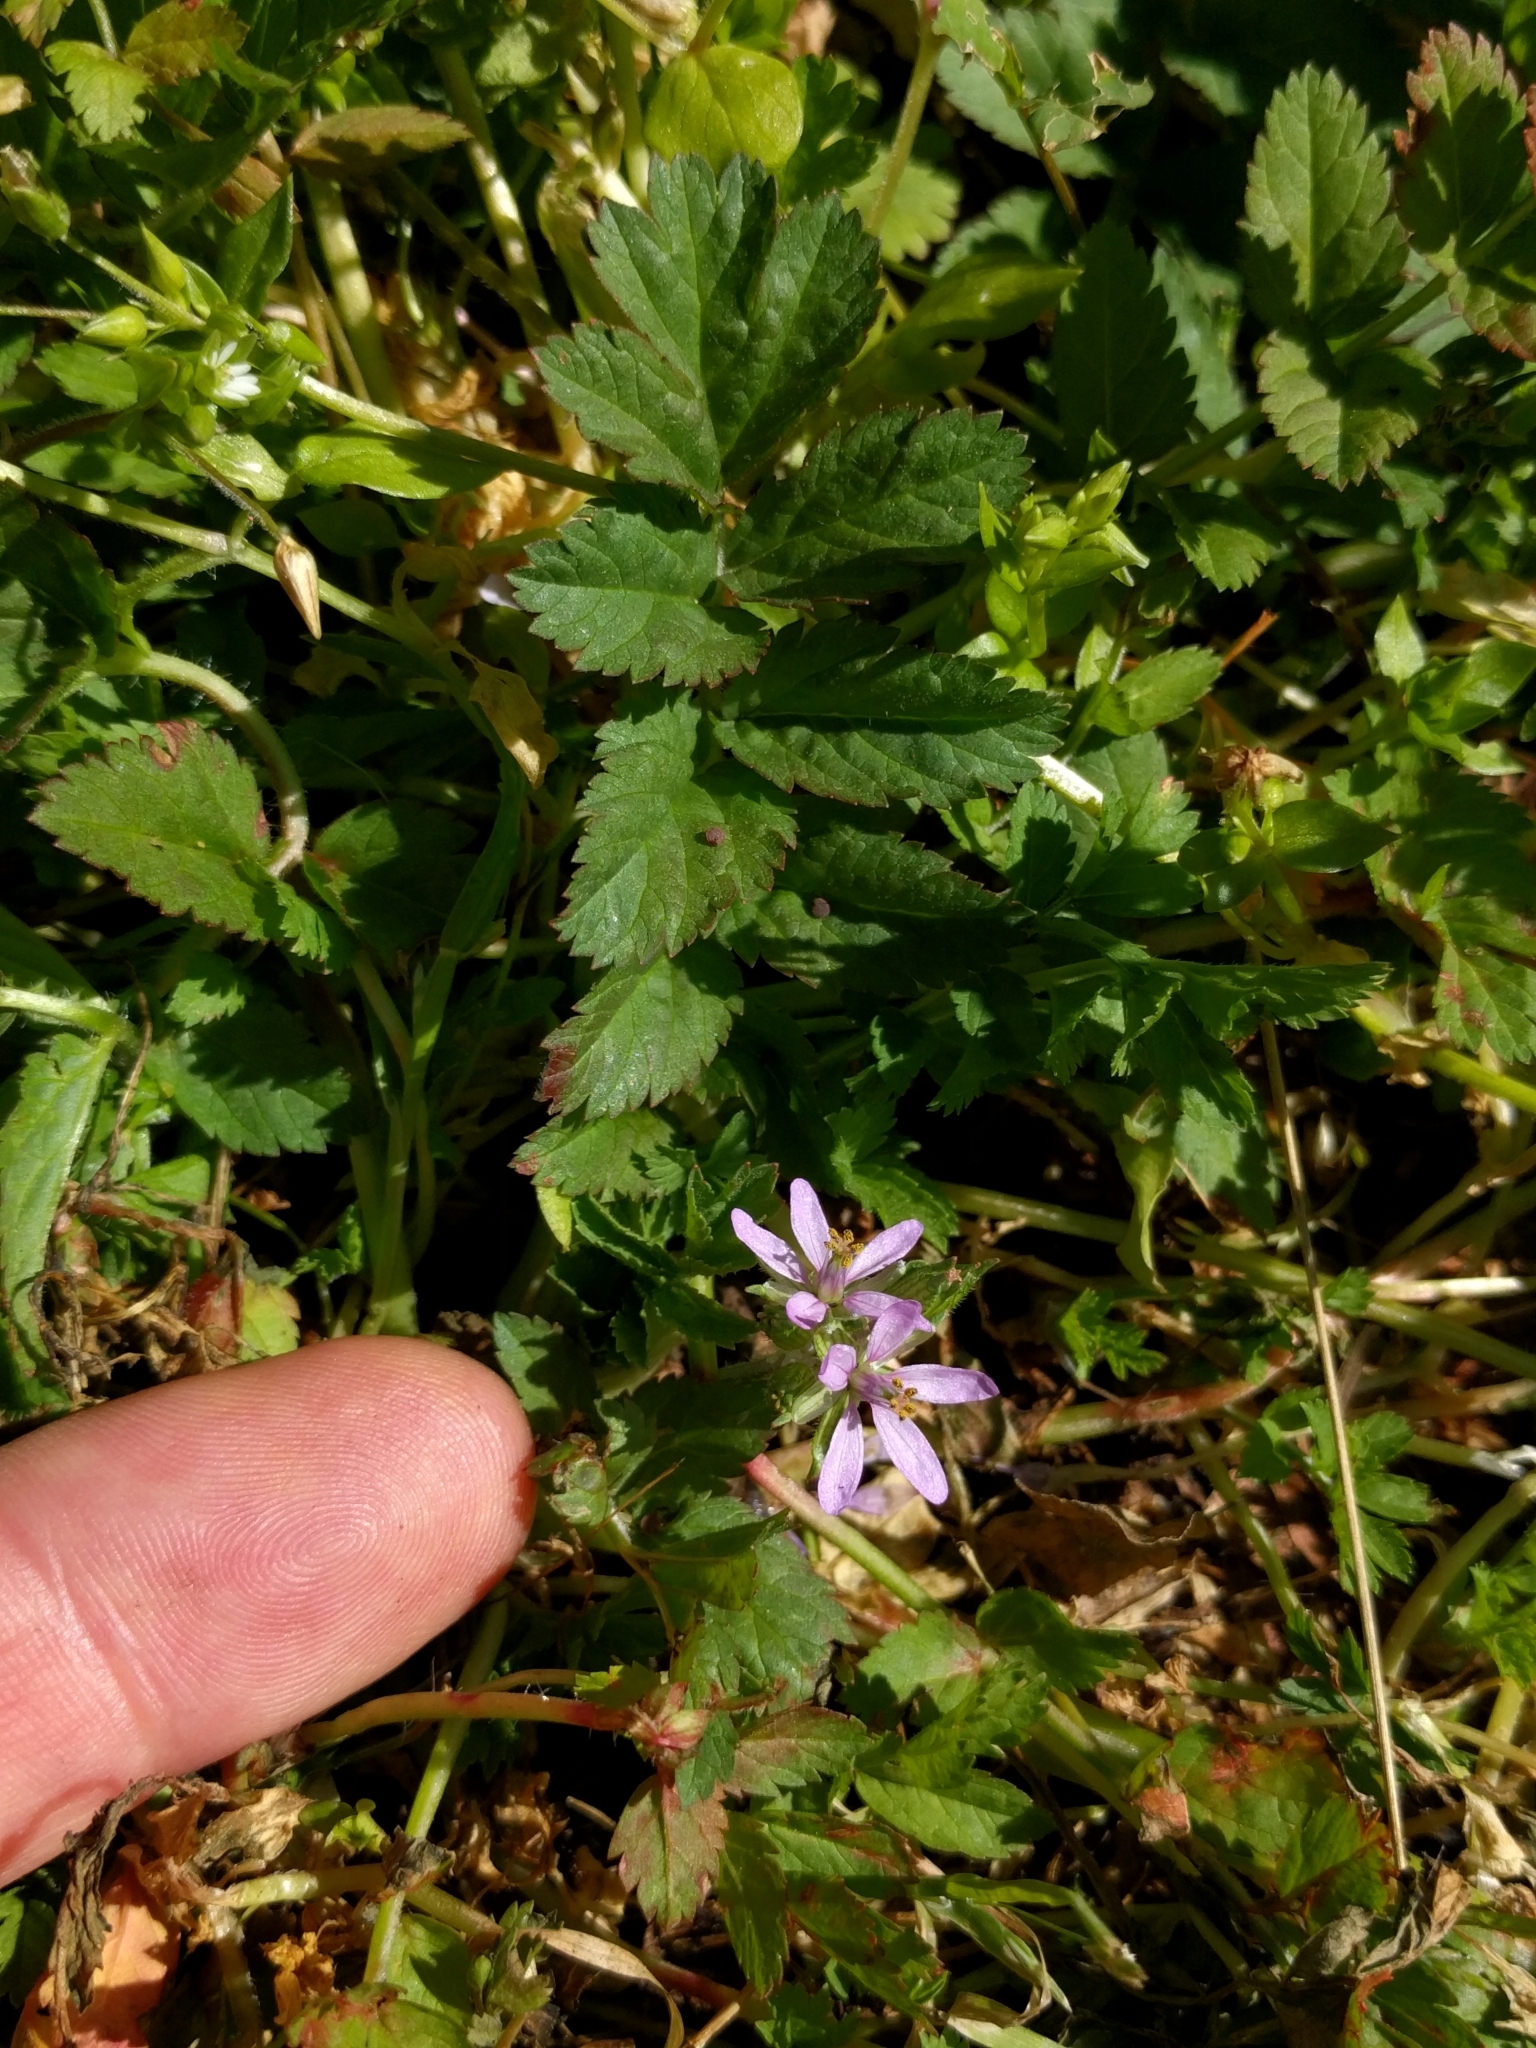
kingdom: Plantae
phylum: Tracheophyta
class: Magnoliopsida
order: Geraniales
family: Geraniaceae
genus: Erodium
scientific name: Erodium moschatum
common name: Musk stork's-bill
